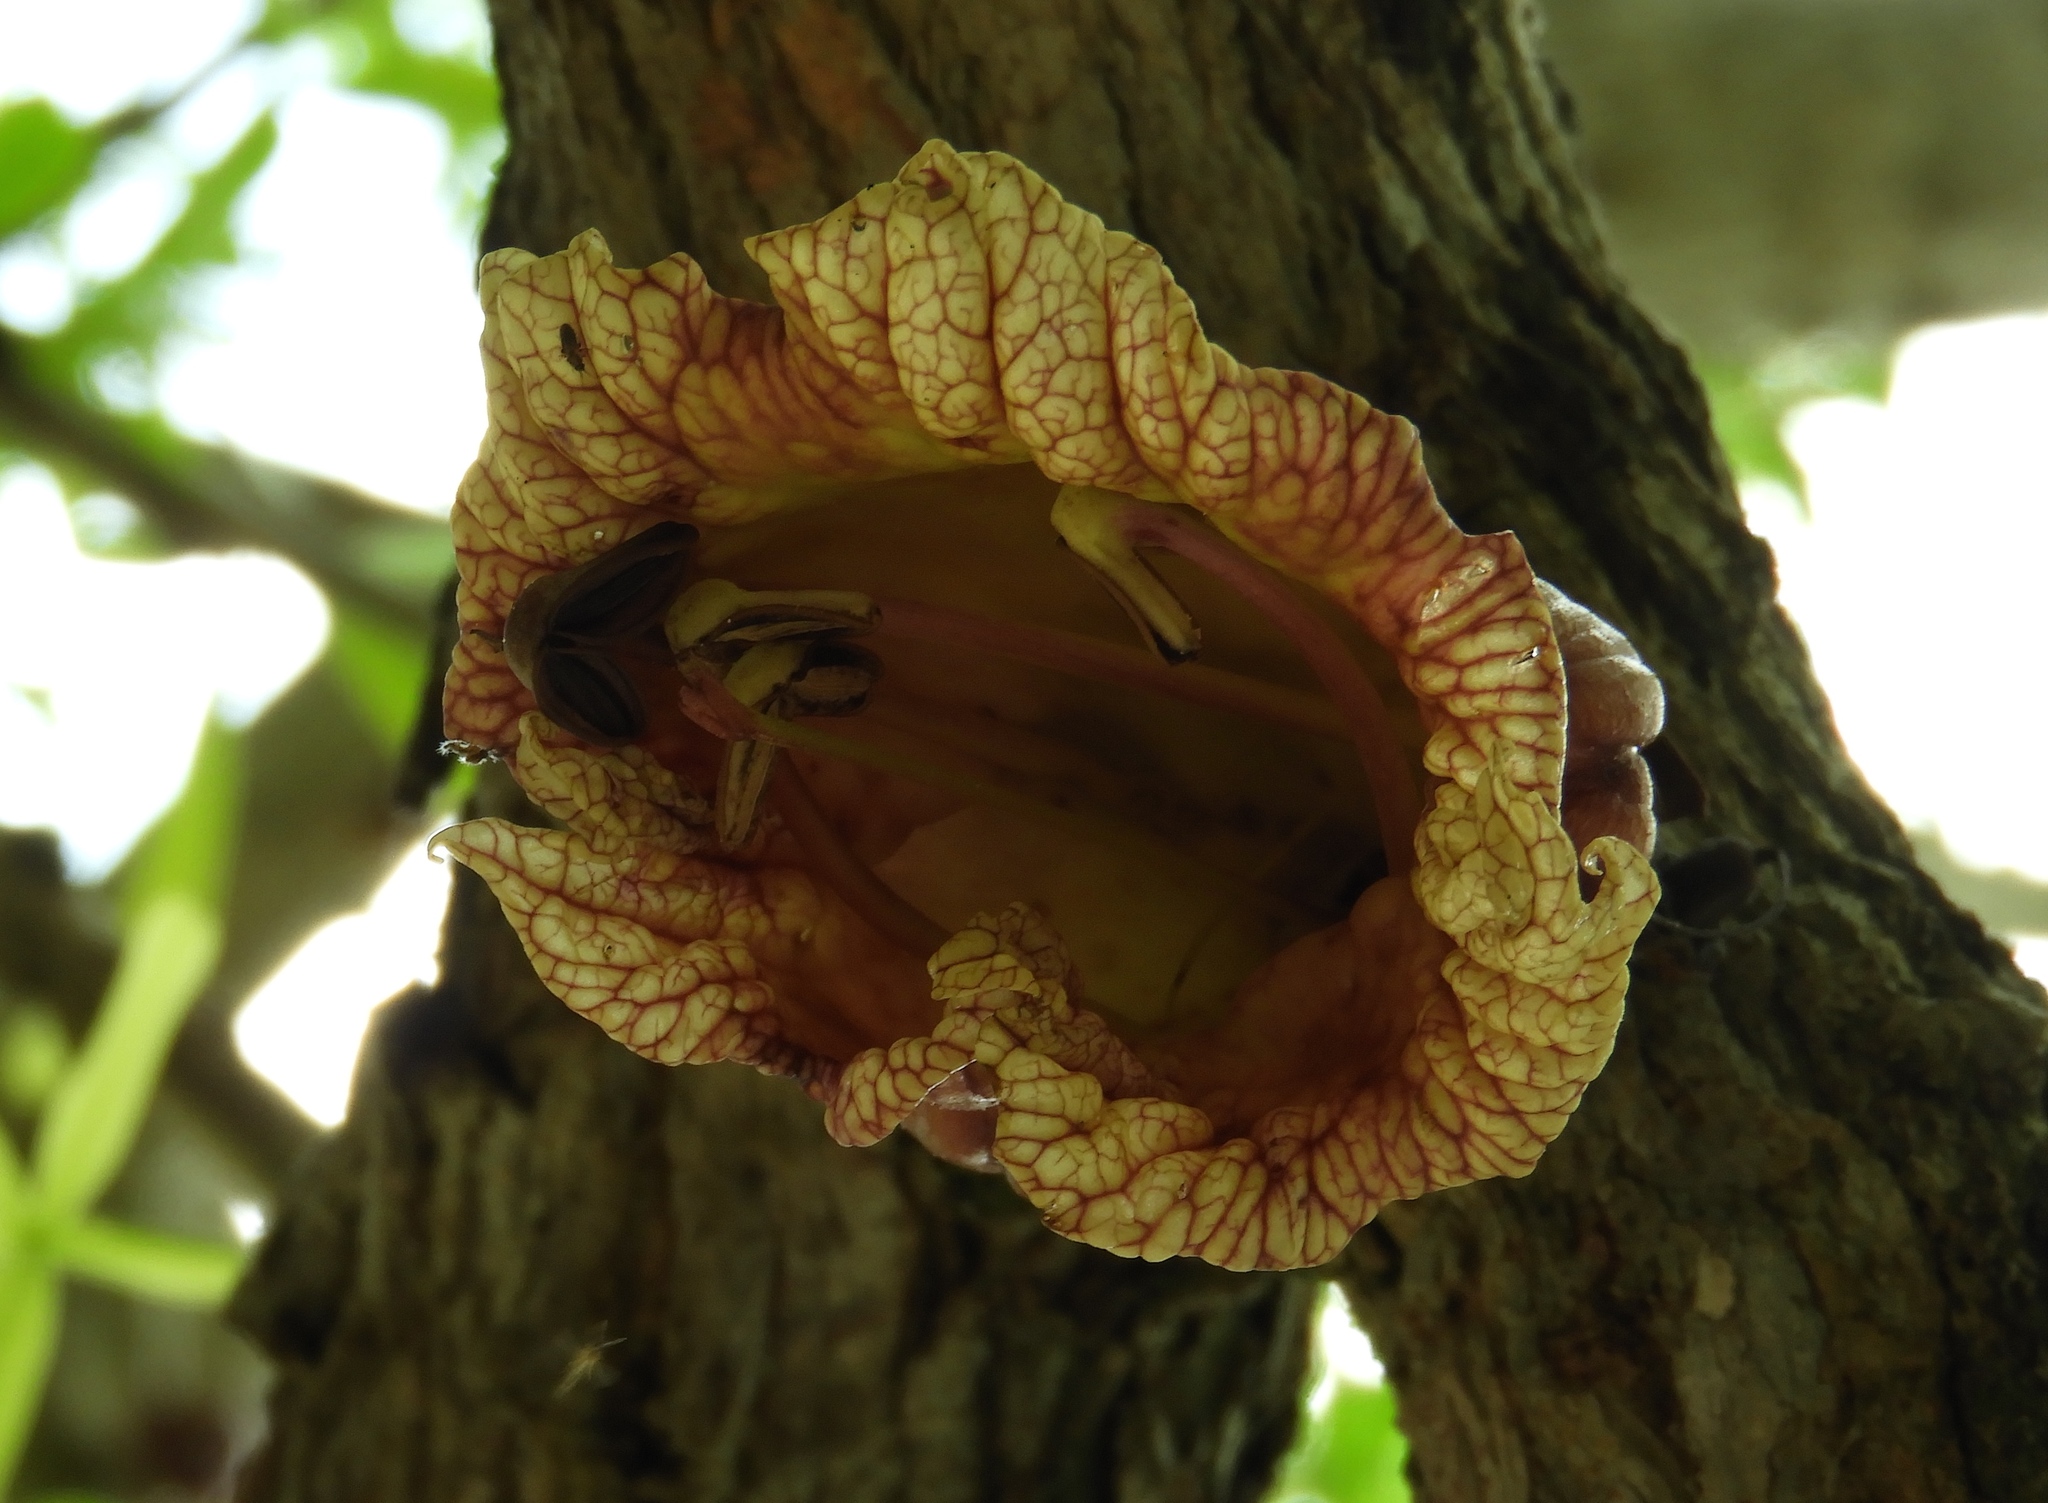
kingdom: Plantae
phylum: Tracheophyta
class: Magnoliopsida
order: Lamiales
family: Bignoniaceae
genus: Crescentia
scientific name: Crescentia alata
